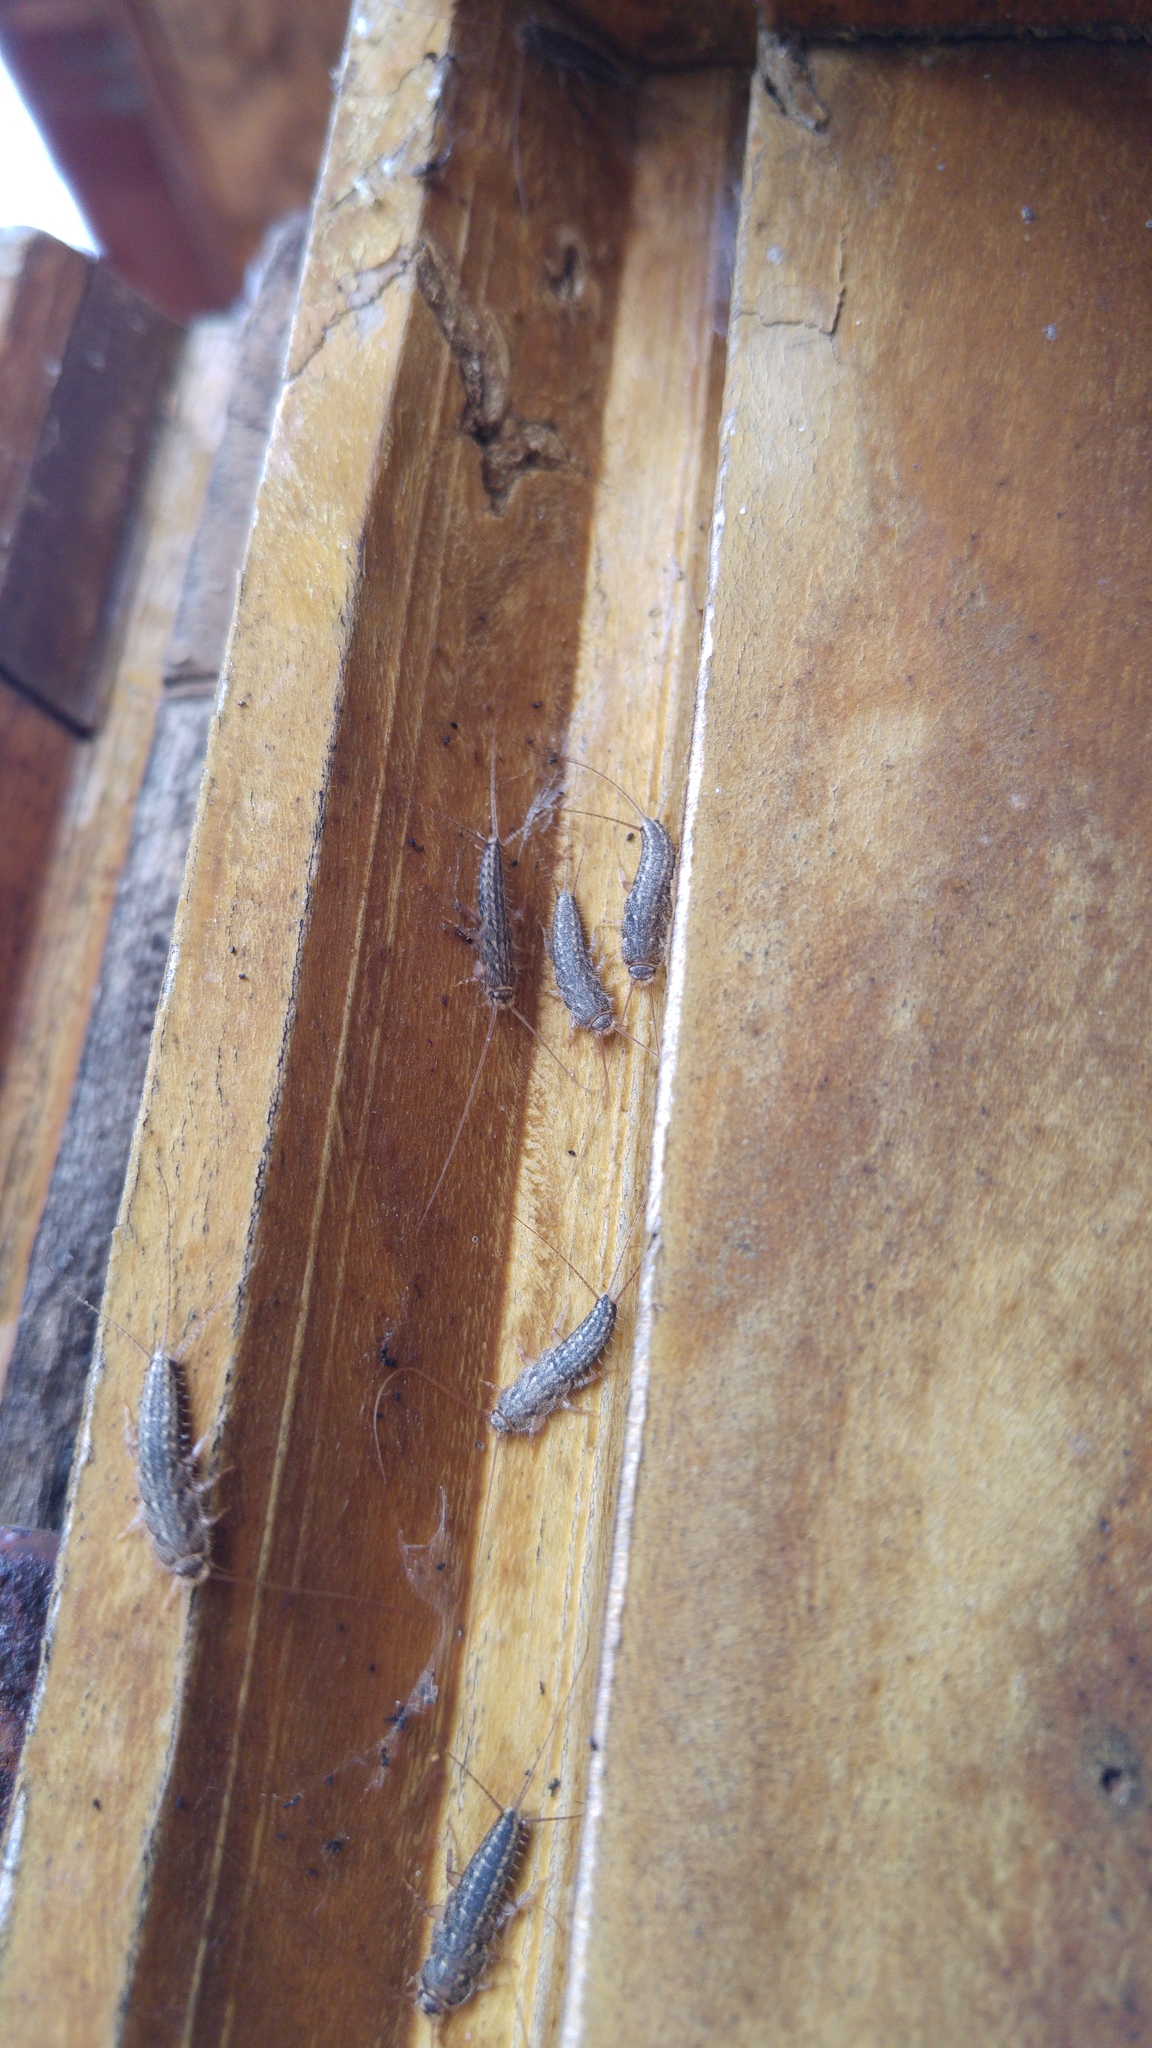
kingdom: Animalia
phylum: Arthropoda
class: Insecta
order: Zygentoma
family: Lepismatidae
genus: Ctenolepisma
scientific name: Ctenolepisma lineata
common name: Four-lined silverfish
